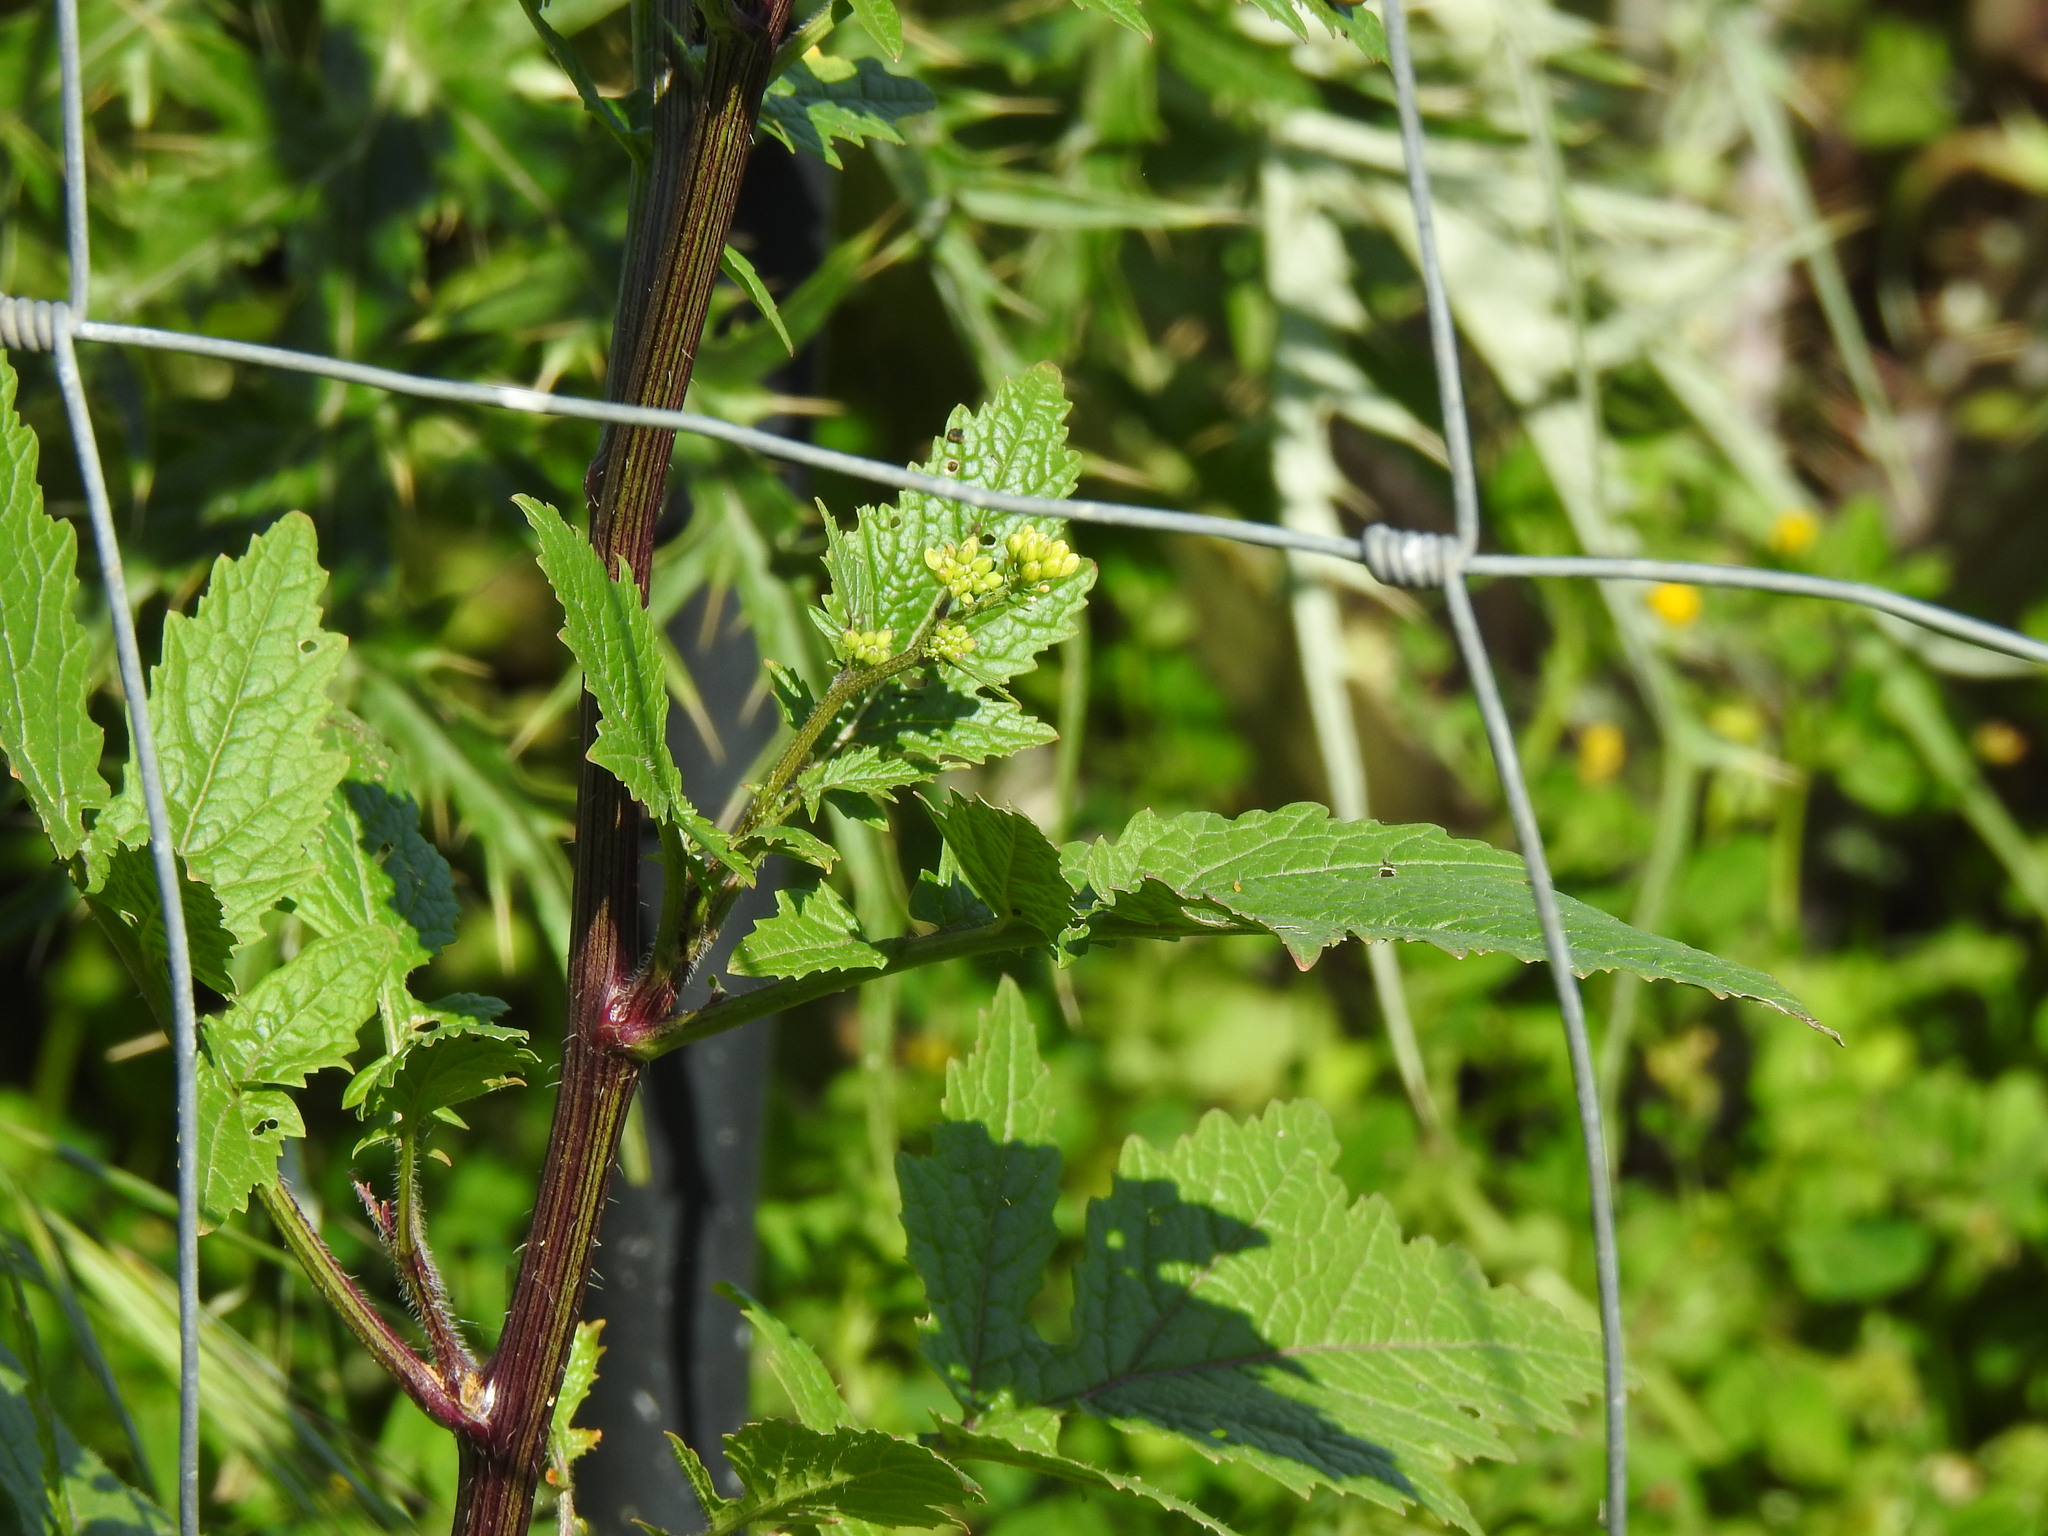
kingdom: Plantae
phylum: Tracheophyta
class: Magnoliopsida
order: Brassicales
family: Brassicaceae
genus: Sinapis
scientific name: Sinapis alba
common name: White mustard
